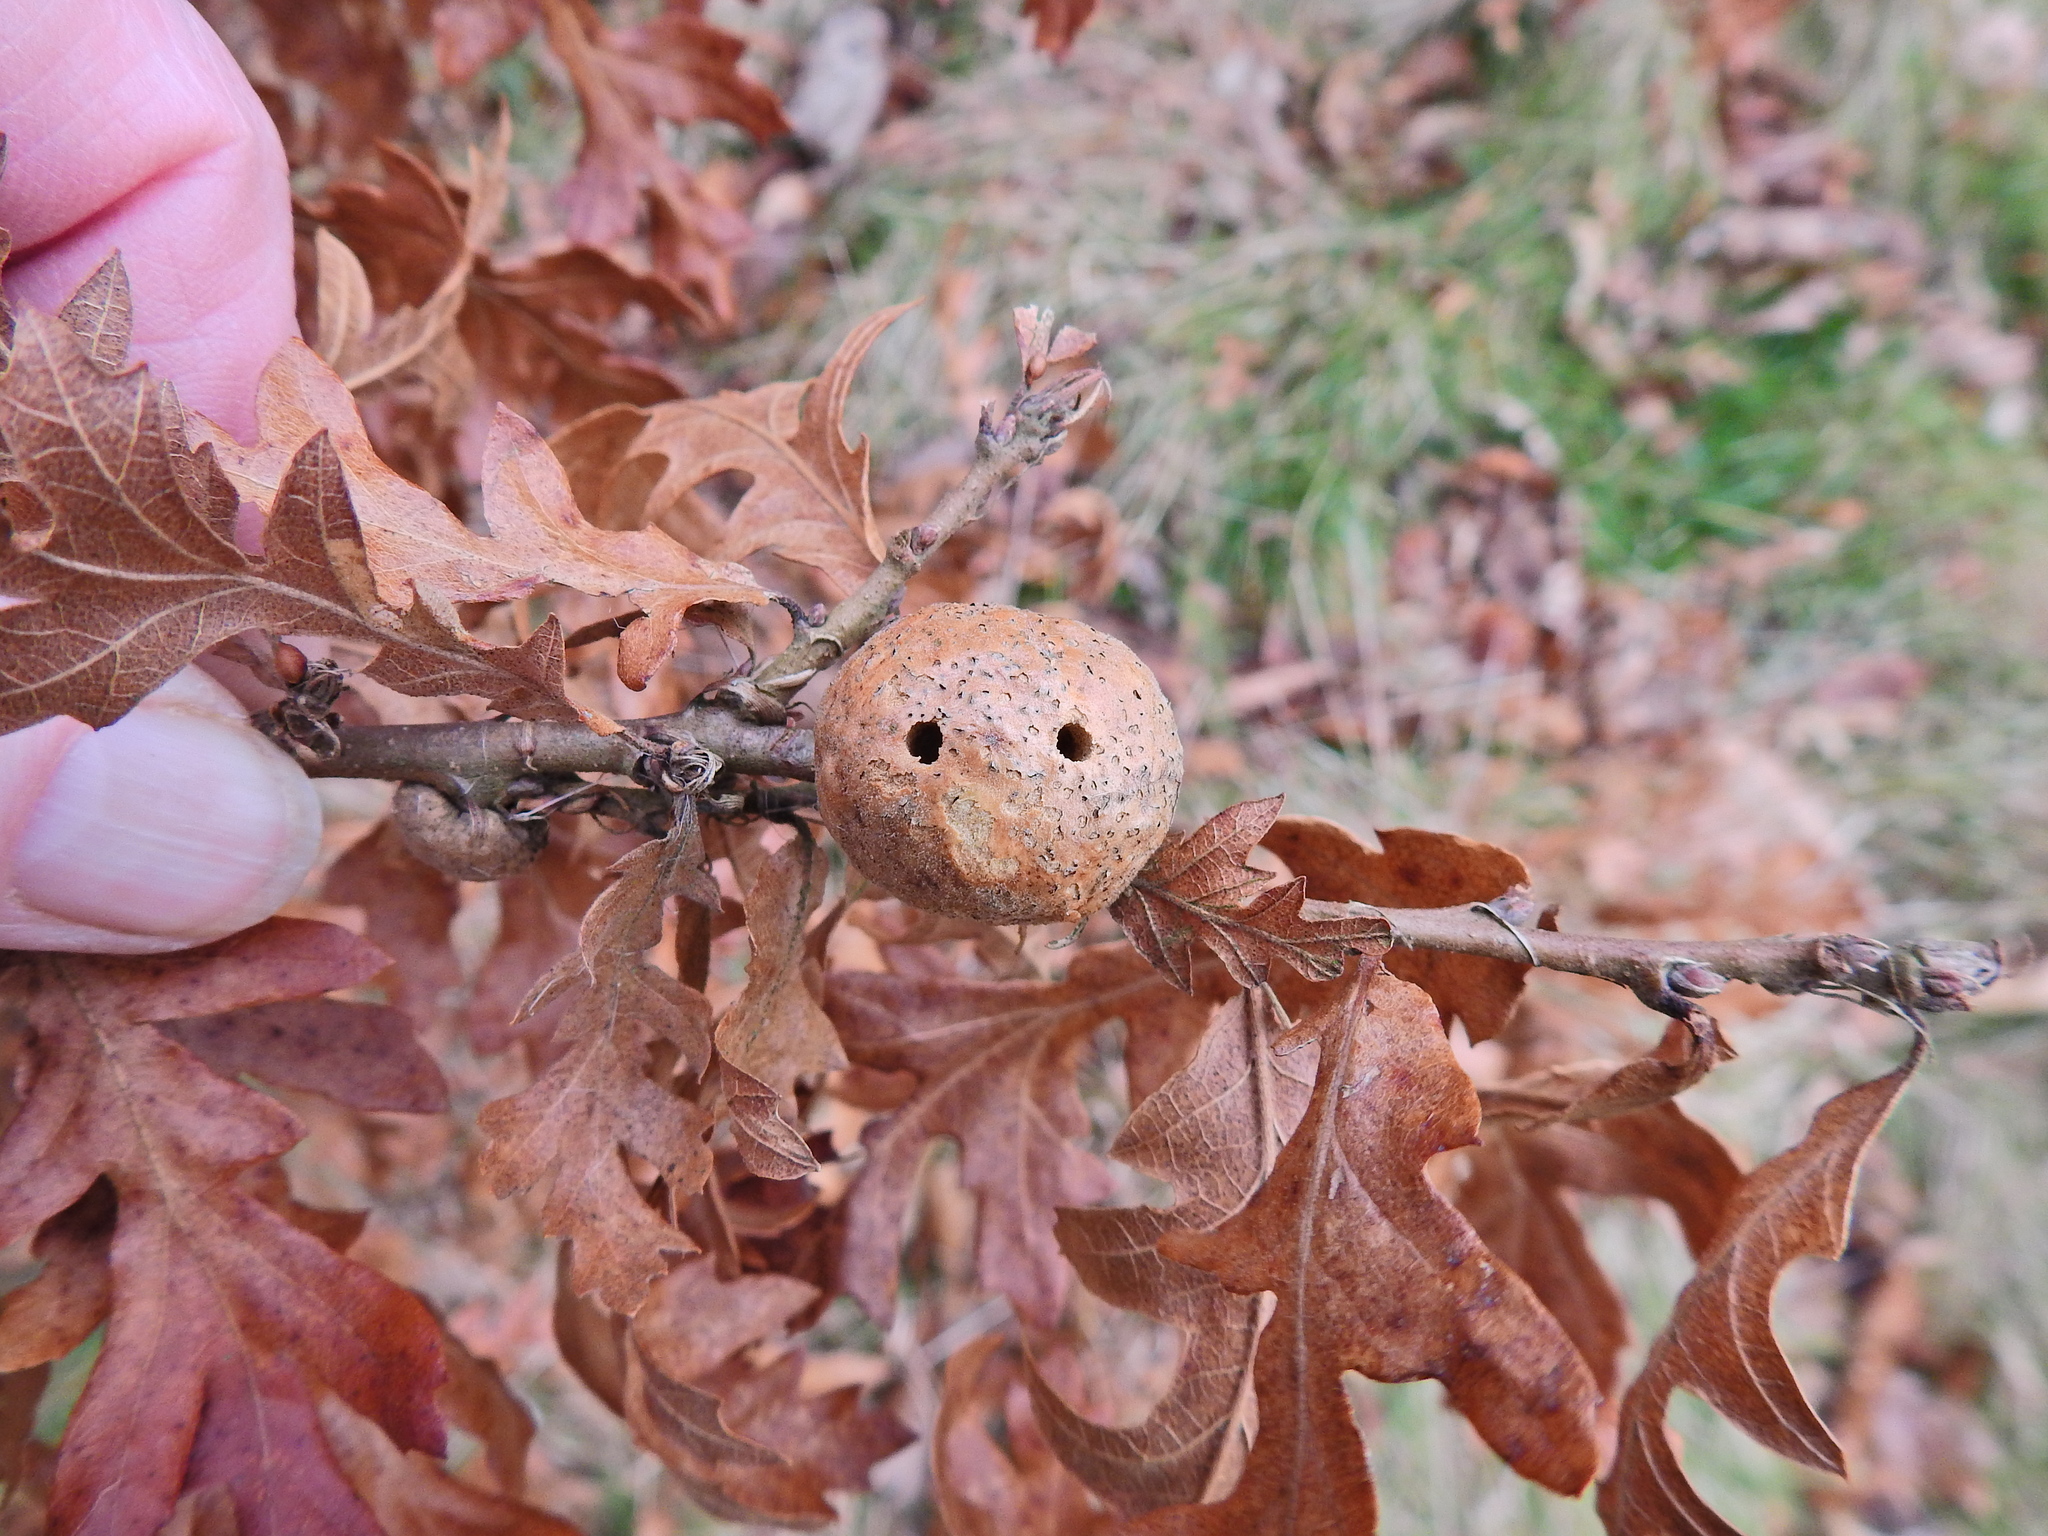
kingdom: Animalia
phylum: Arthropoda
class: Insecta
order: Hymenoptera
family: Cynipidae
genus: Aphelonyx
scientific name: Aphelonyx cerricola
